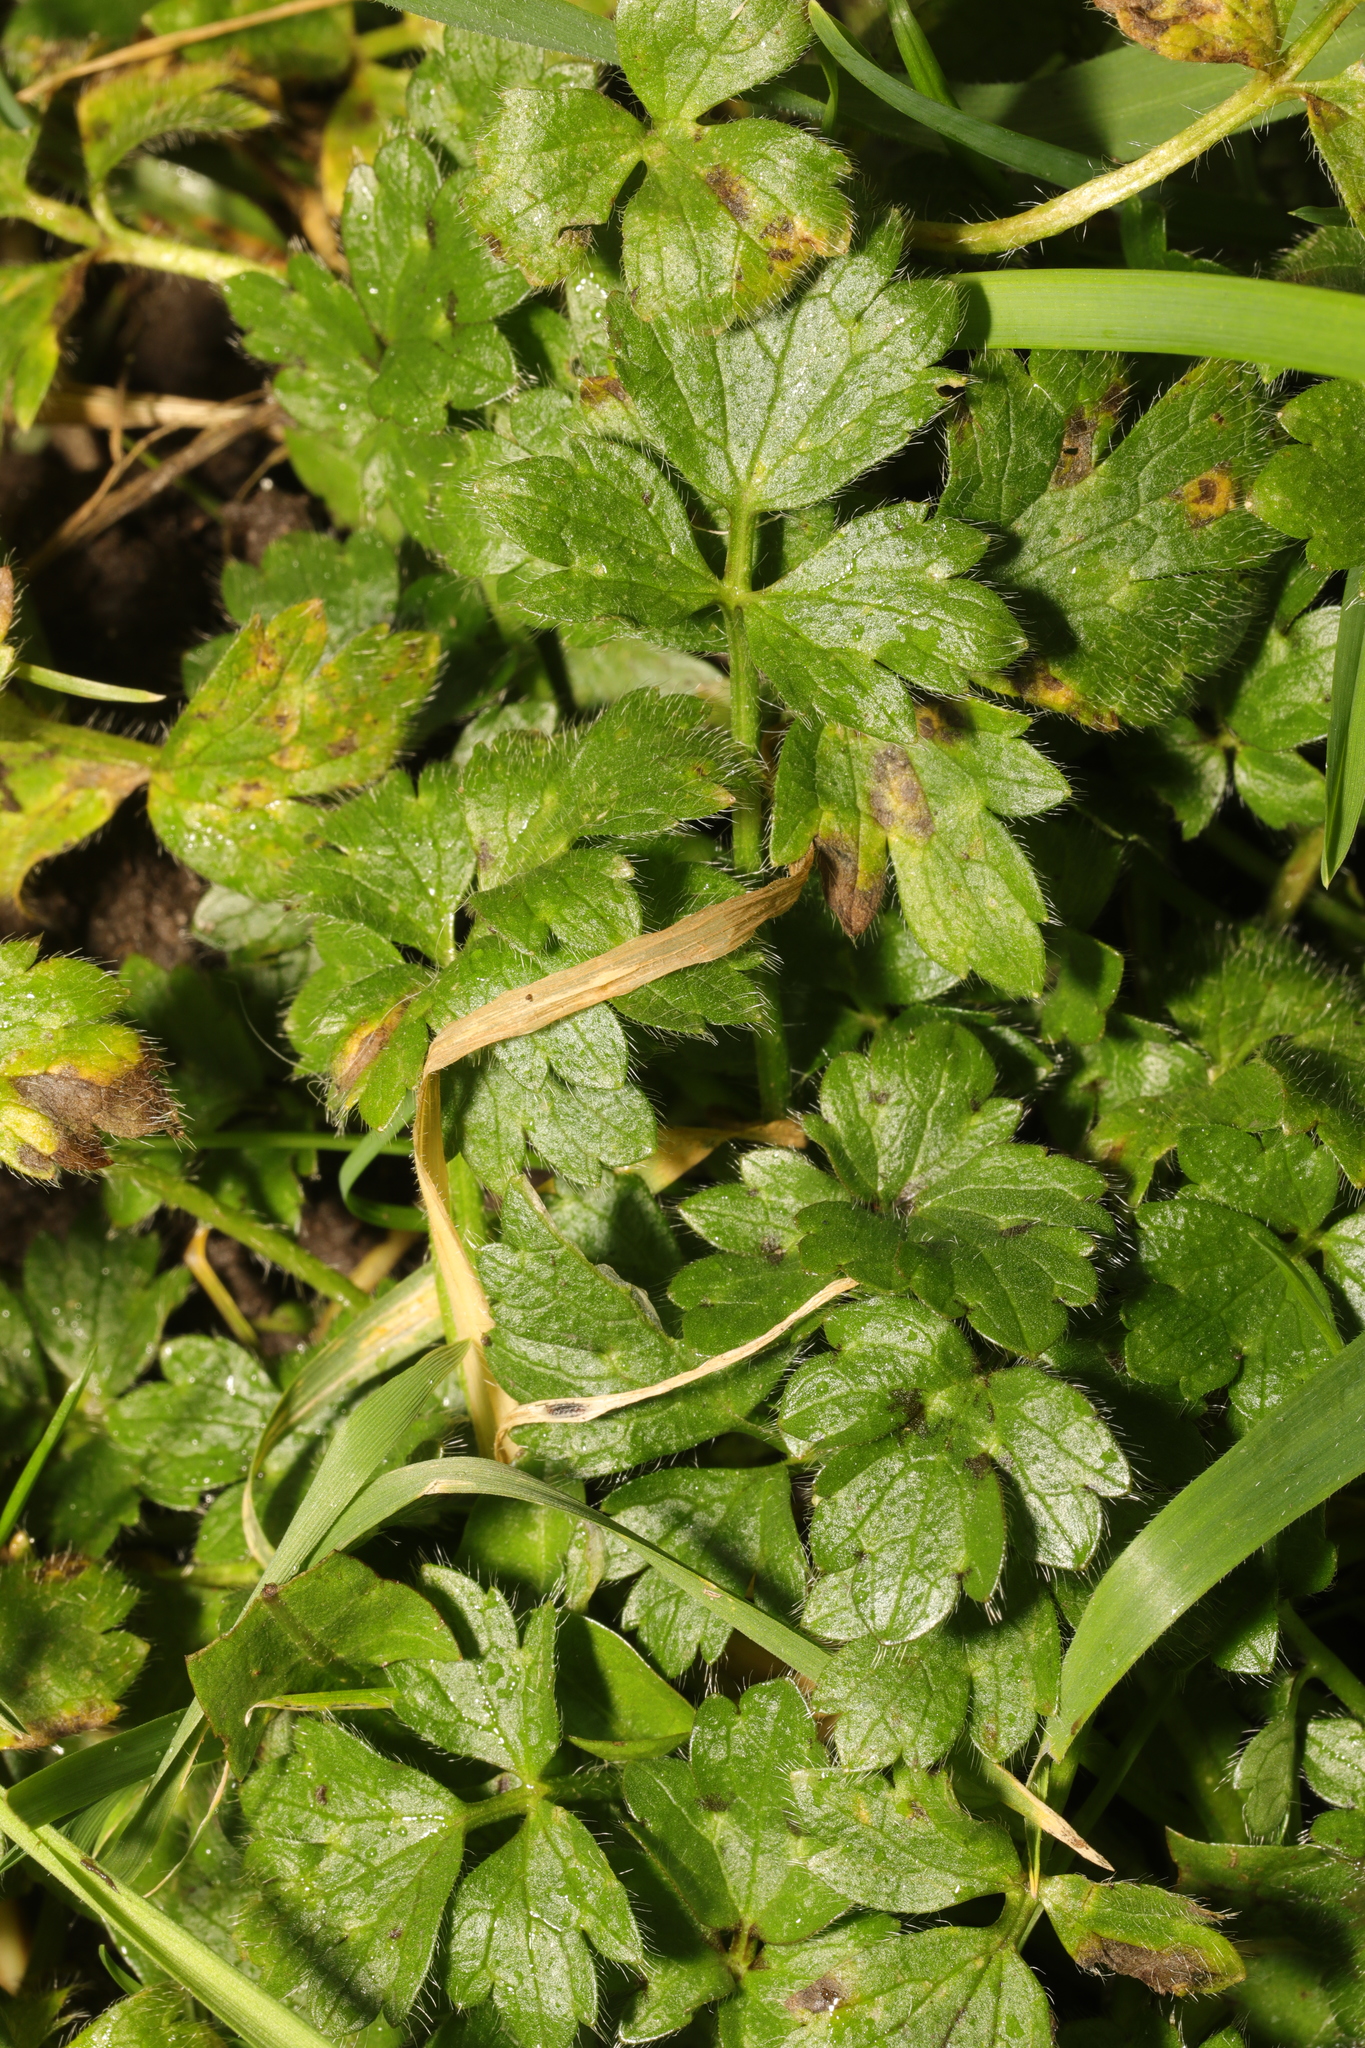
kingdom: Plantae
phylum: Tracheophyta
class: Magnoliopsida
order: Ranunculales
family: Ranunculaceae
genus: Ranunculus
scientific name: Ranunculus repens
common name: Creeping buttercup
